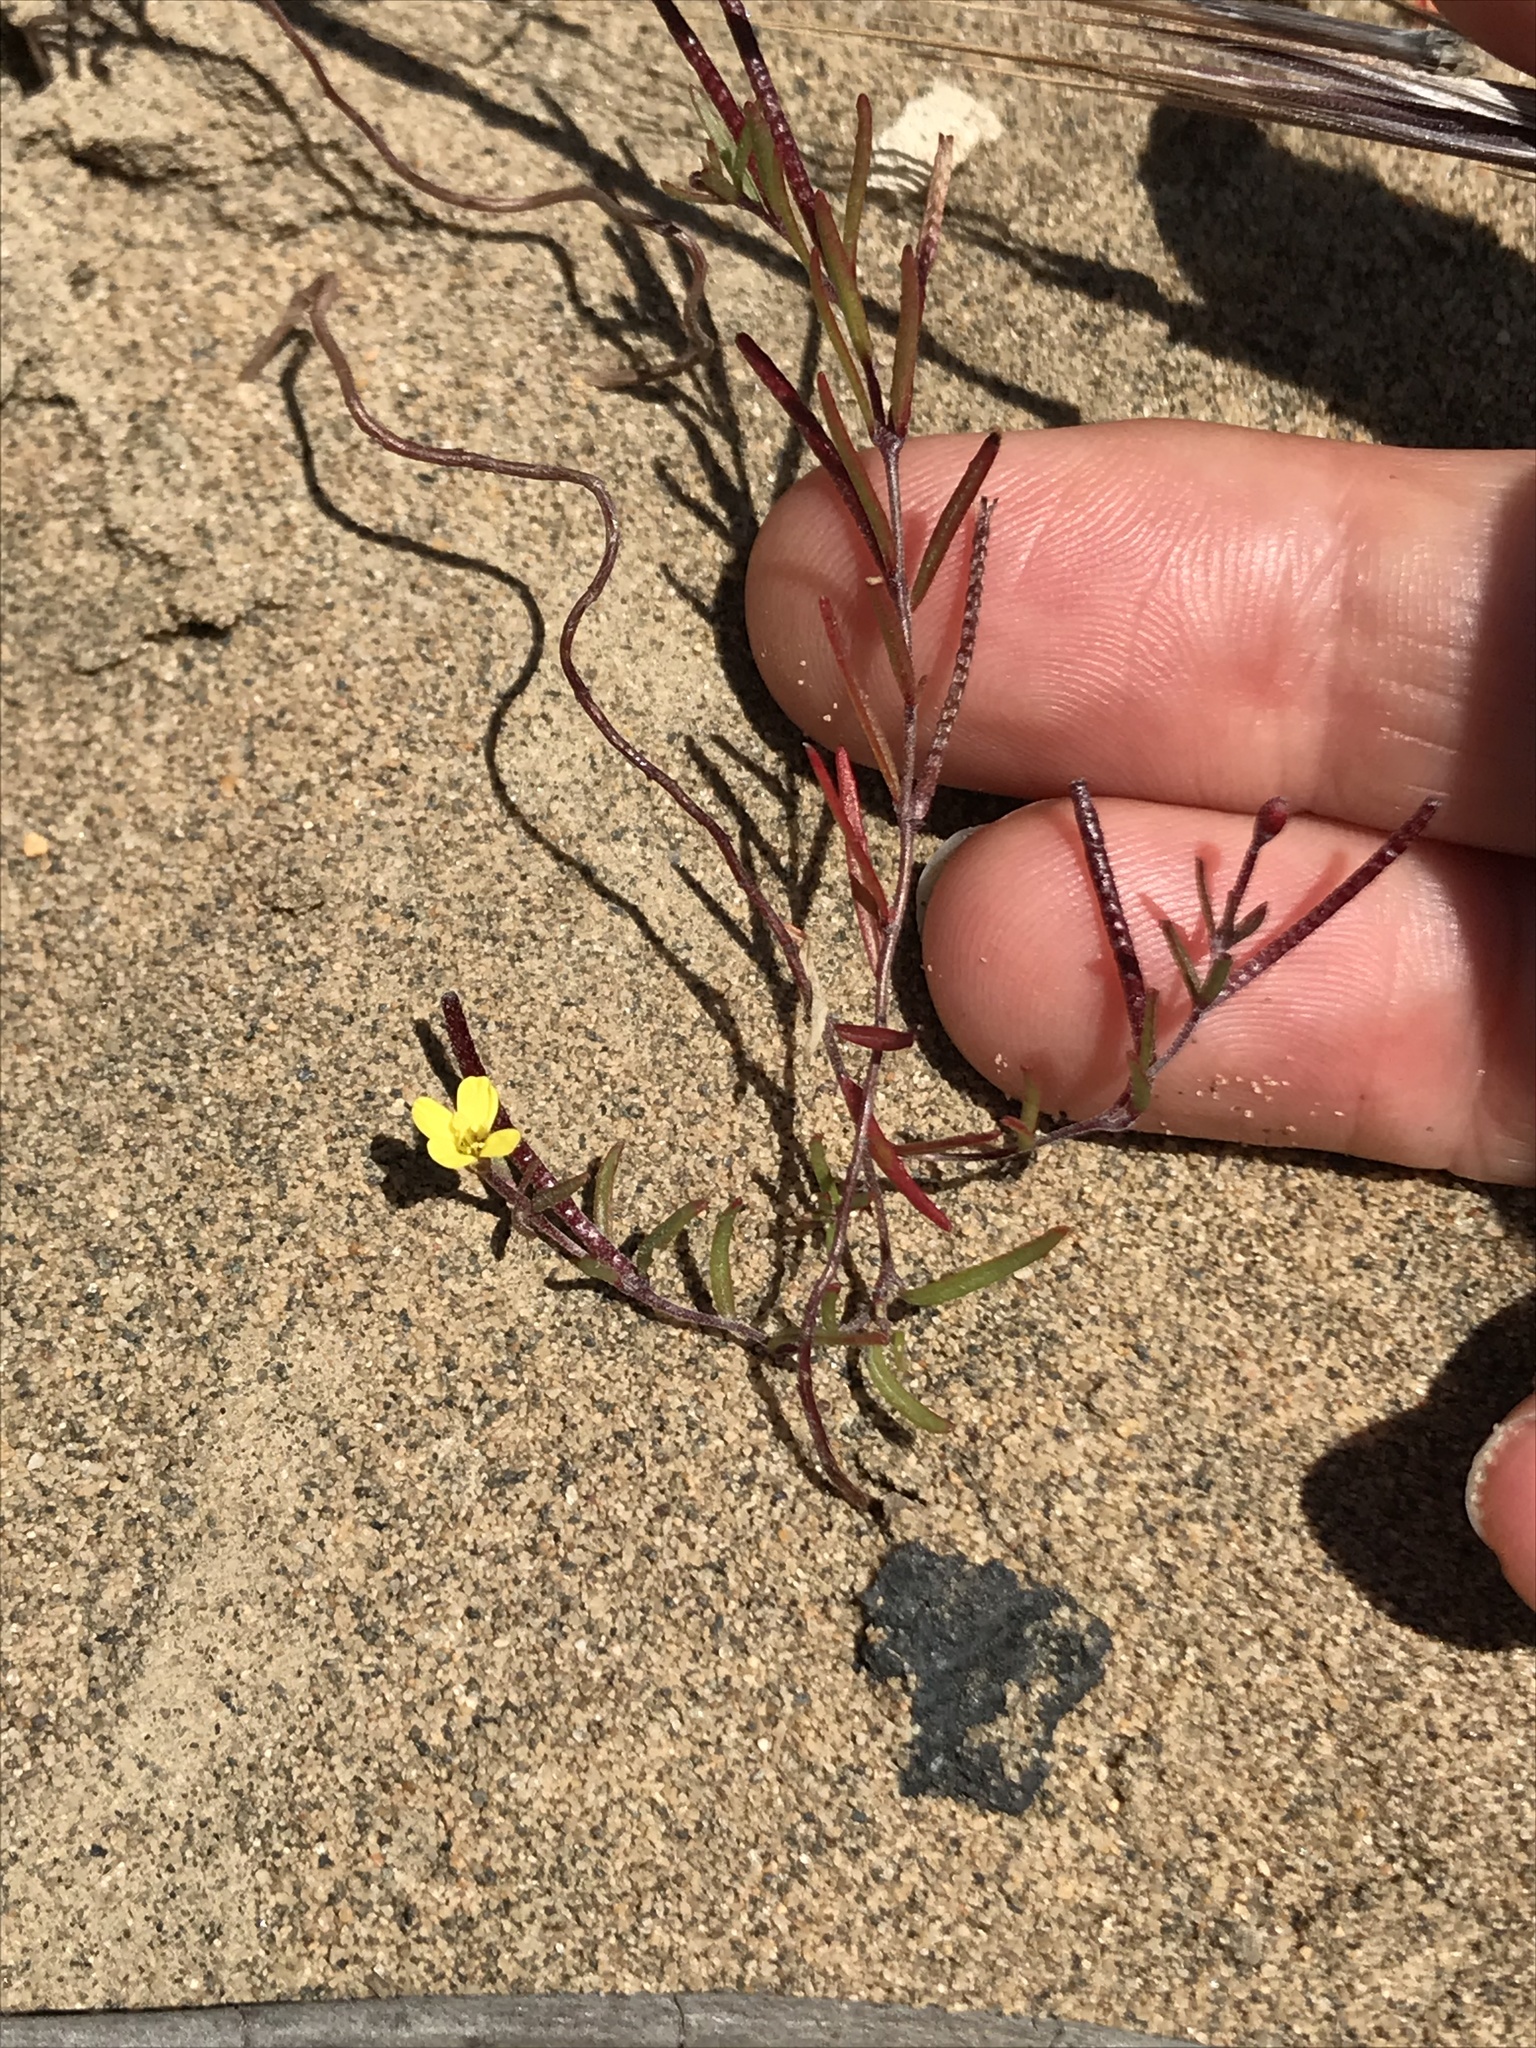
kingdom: Plantae
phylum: Tracheophyta
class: Magnoliopsida
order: Myrtales
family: Onagraceae
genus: Camissonia
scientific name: Camissonia strigulosa
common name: Contorted-primrose
